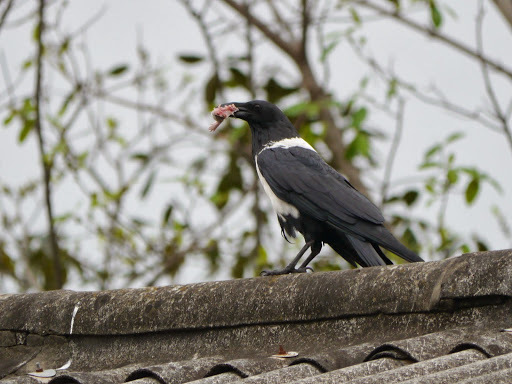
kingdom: Animalia
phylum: Chordata
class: Aves
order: Passeriformes
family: Corvidae
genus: Corvus
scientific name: Corvus albus
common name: Pied crow
